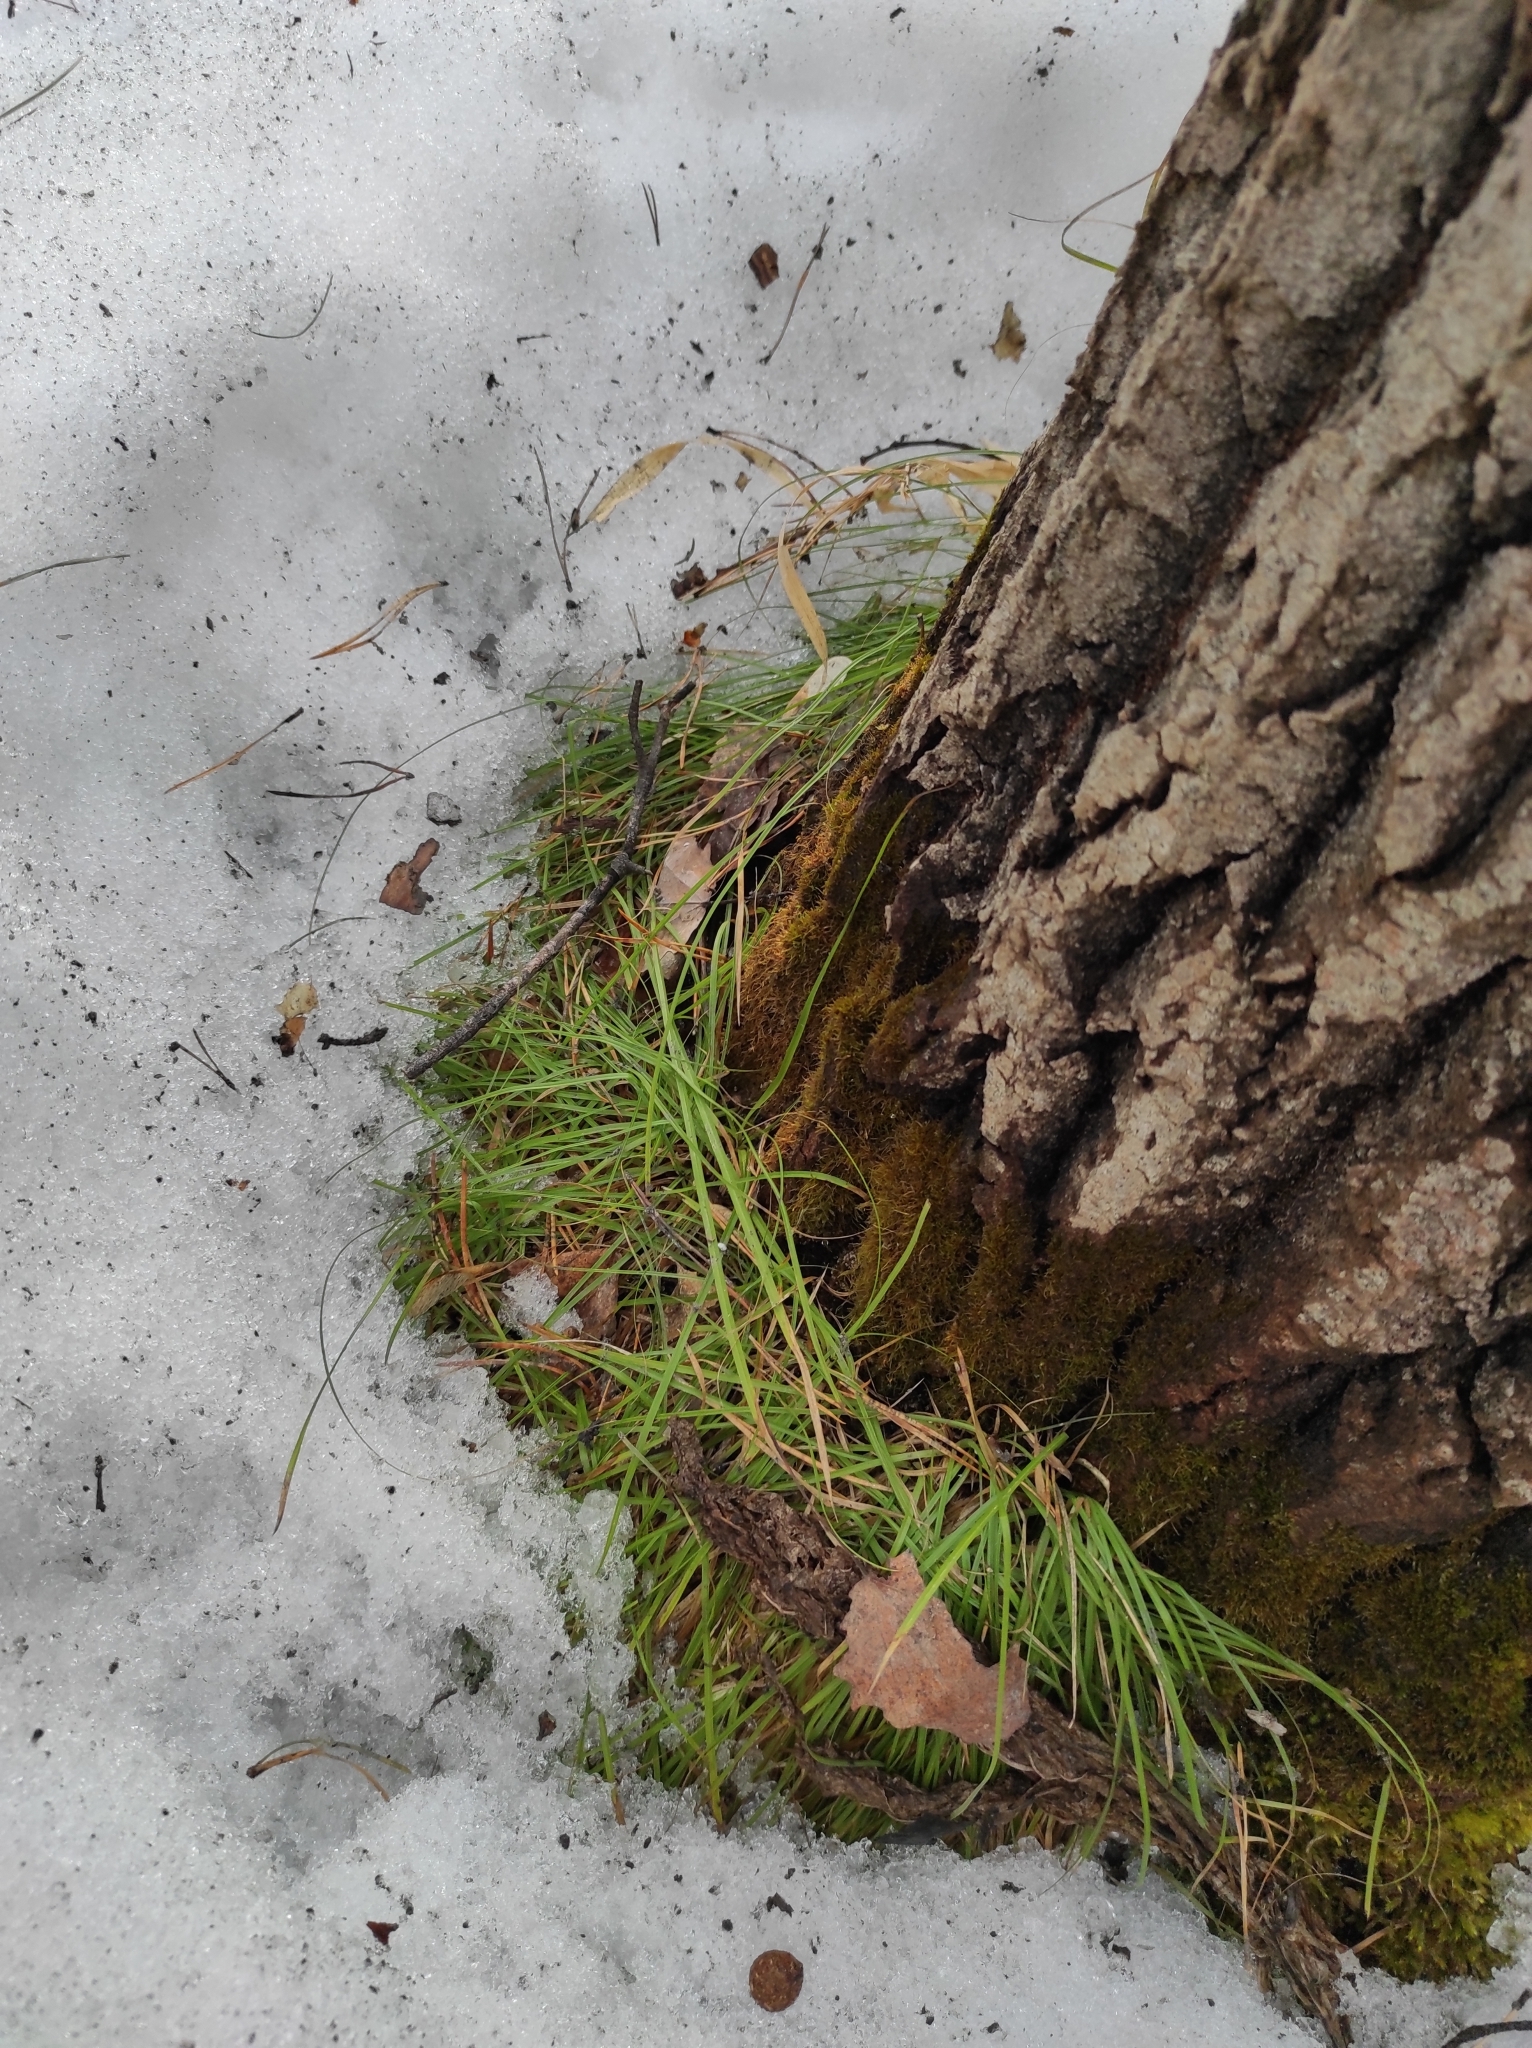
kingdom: Plantae
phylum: Tracheophyta
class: Magnoliopsida
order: Malpighiales
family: Salicaceae
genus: Populus
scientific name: Populus tremula
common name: European aspen
